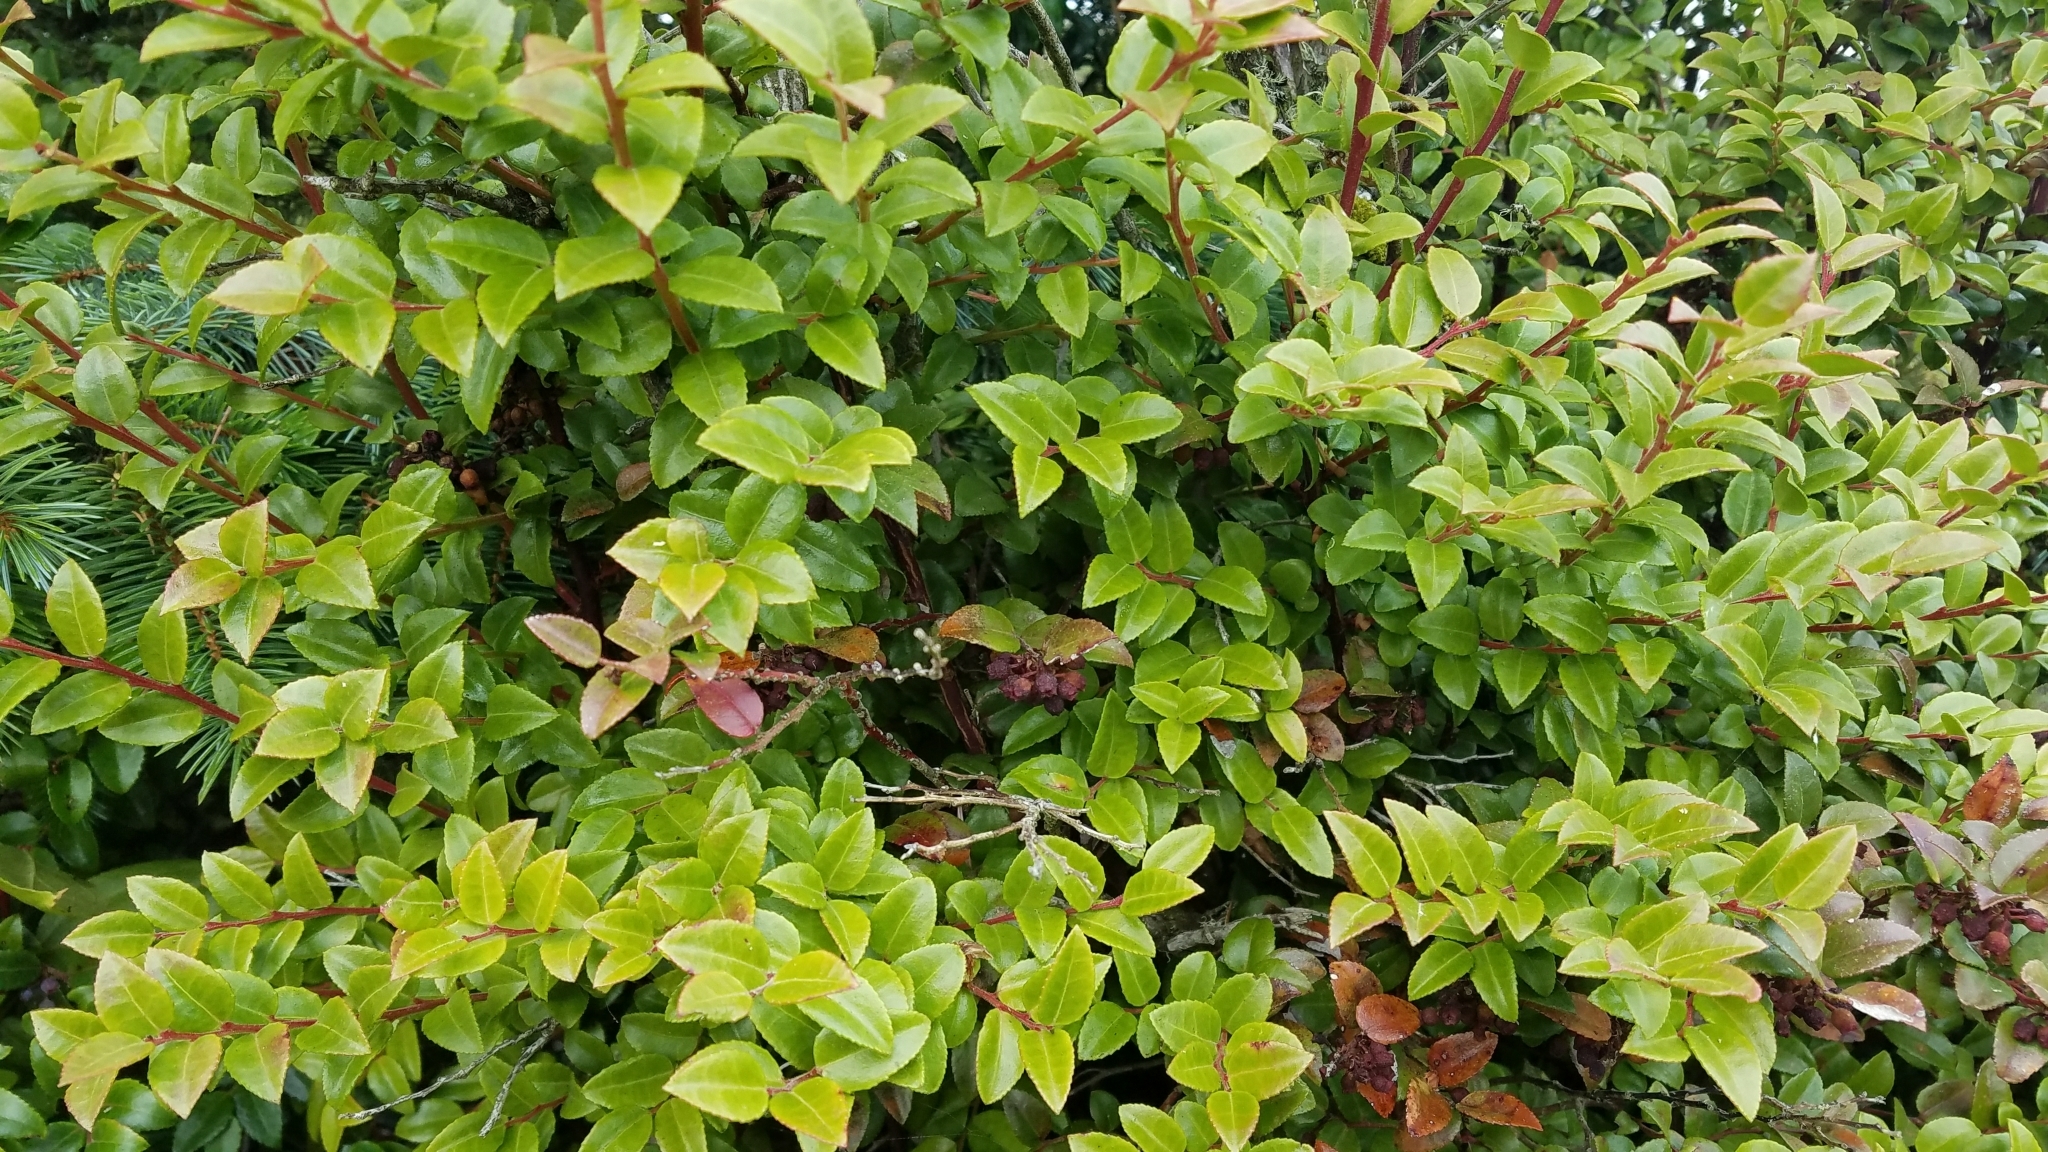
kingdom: Plantae
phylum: Tracheophyta
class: Magnoliopsida
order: Ericales
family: Ericaceae
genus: Vaccinium
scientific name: Vaccinium ovatum
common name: California-huckleberry
